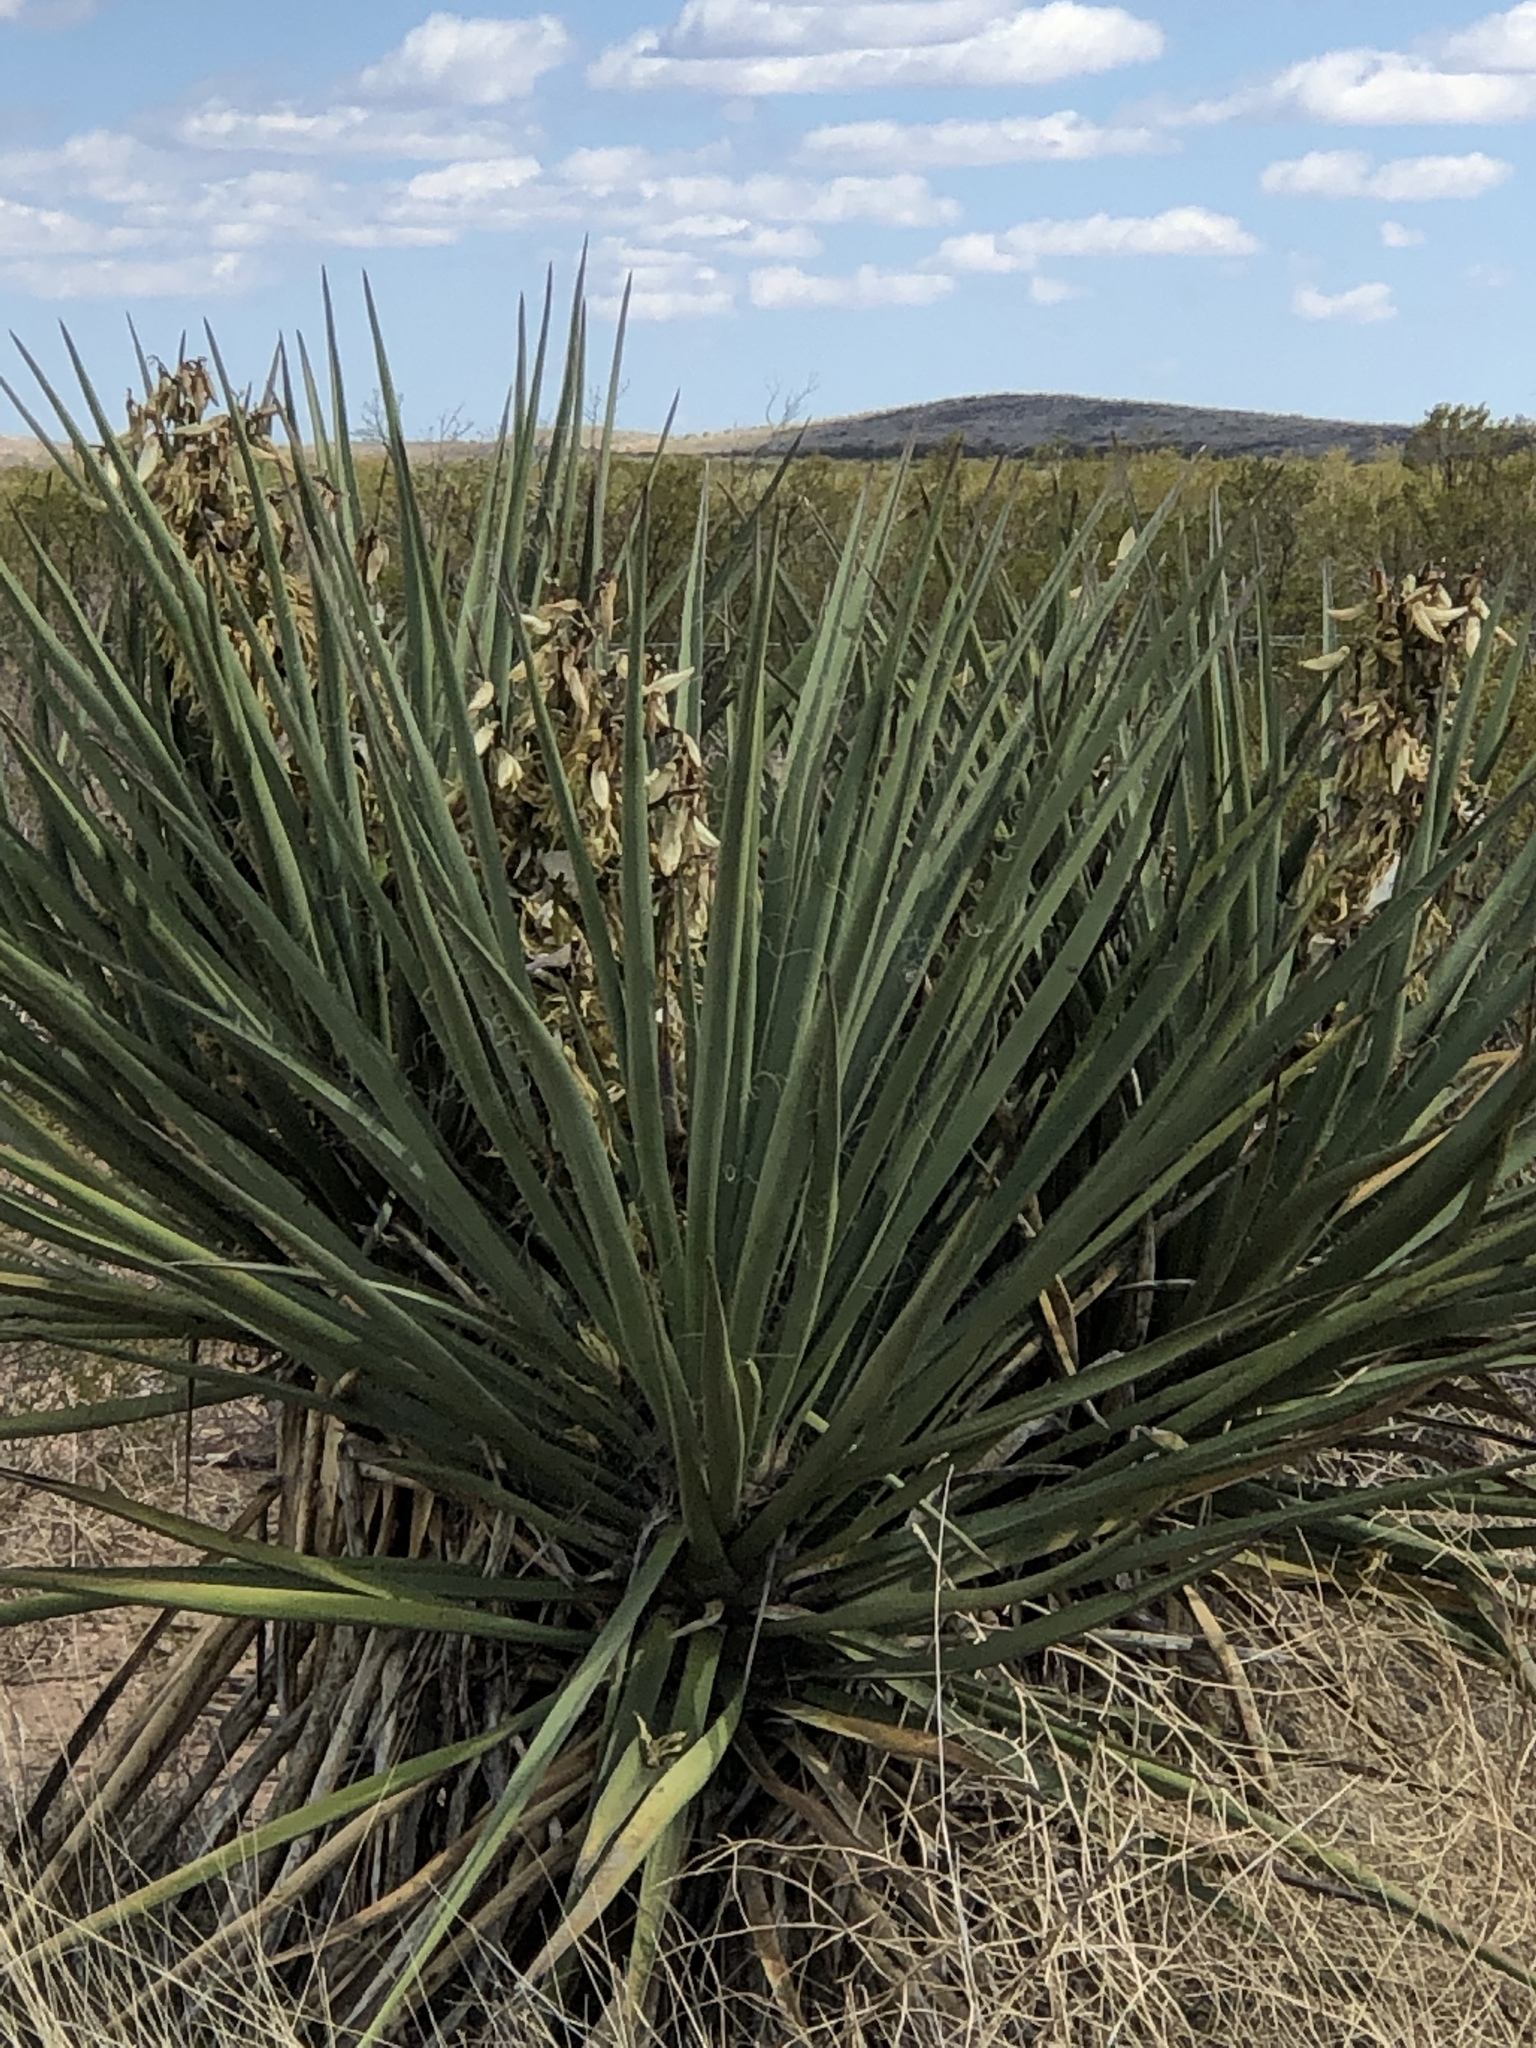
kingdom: Plantae
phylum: Tracheophyta
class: Liliopsida
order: Asparagales
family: Asparagaceae
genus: Yucca
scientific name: Yucca baccata
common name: Banana yucca
